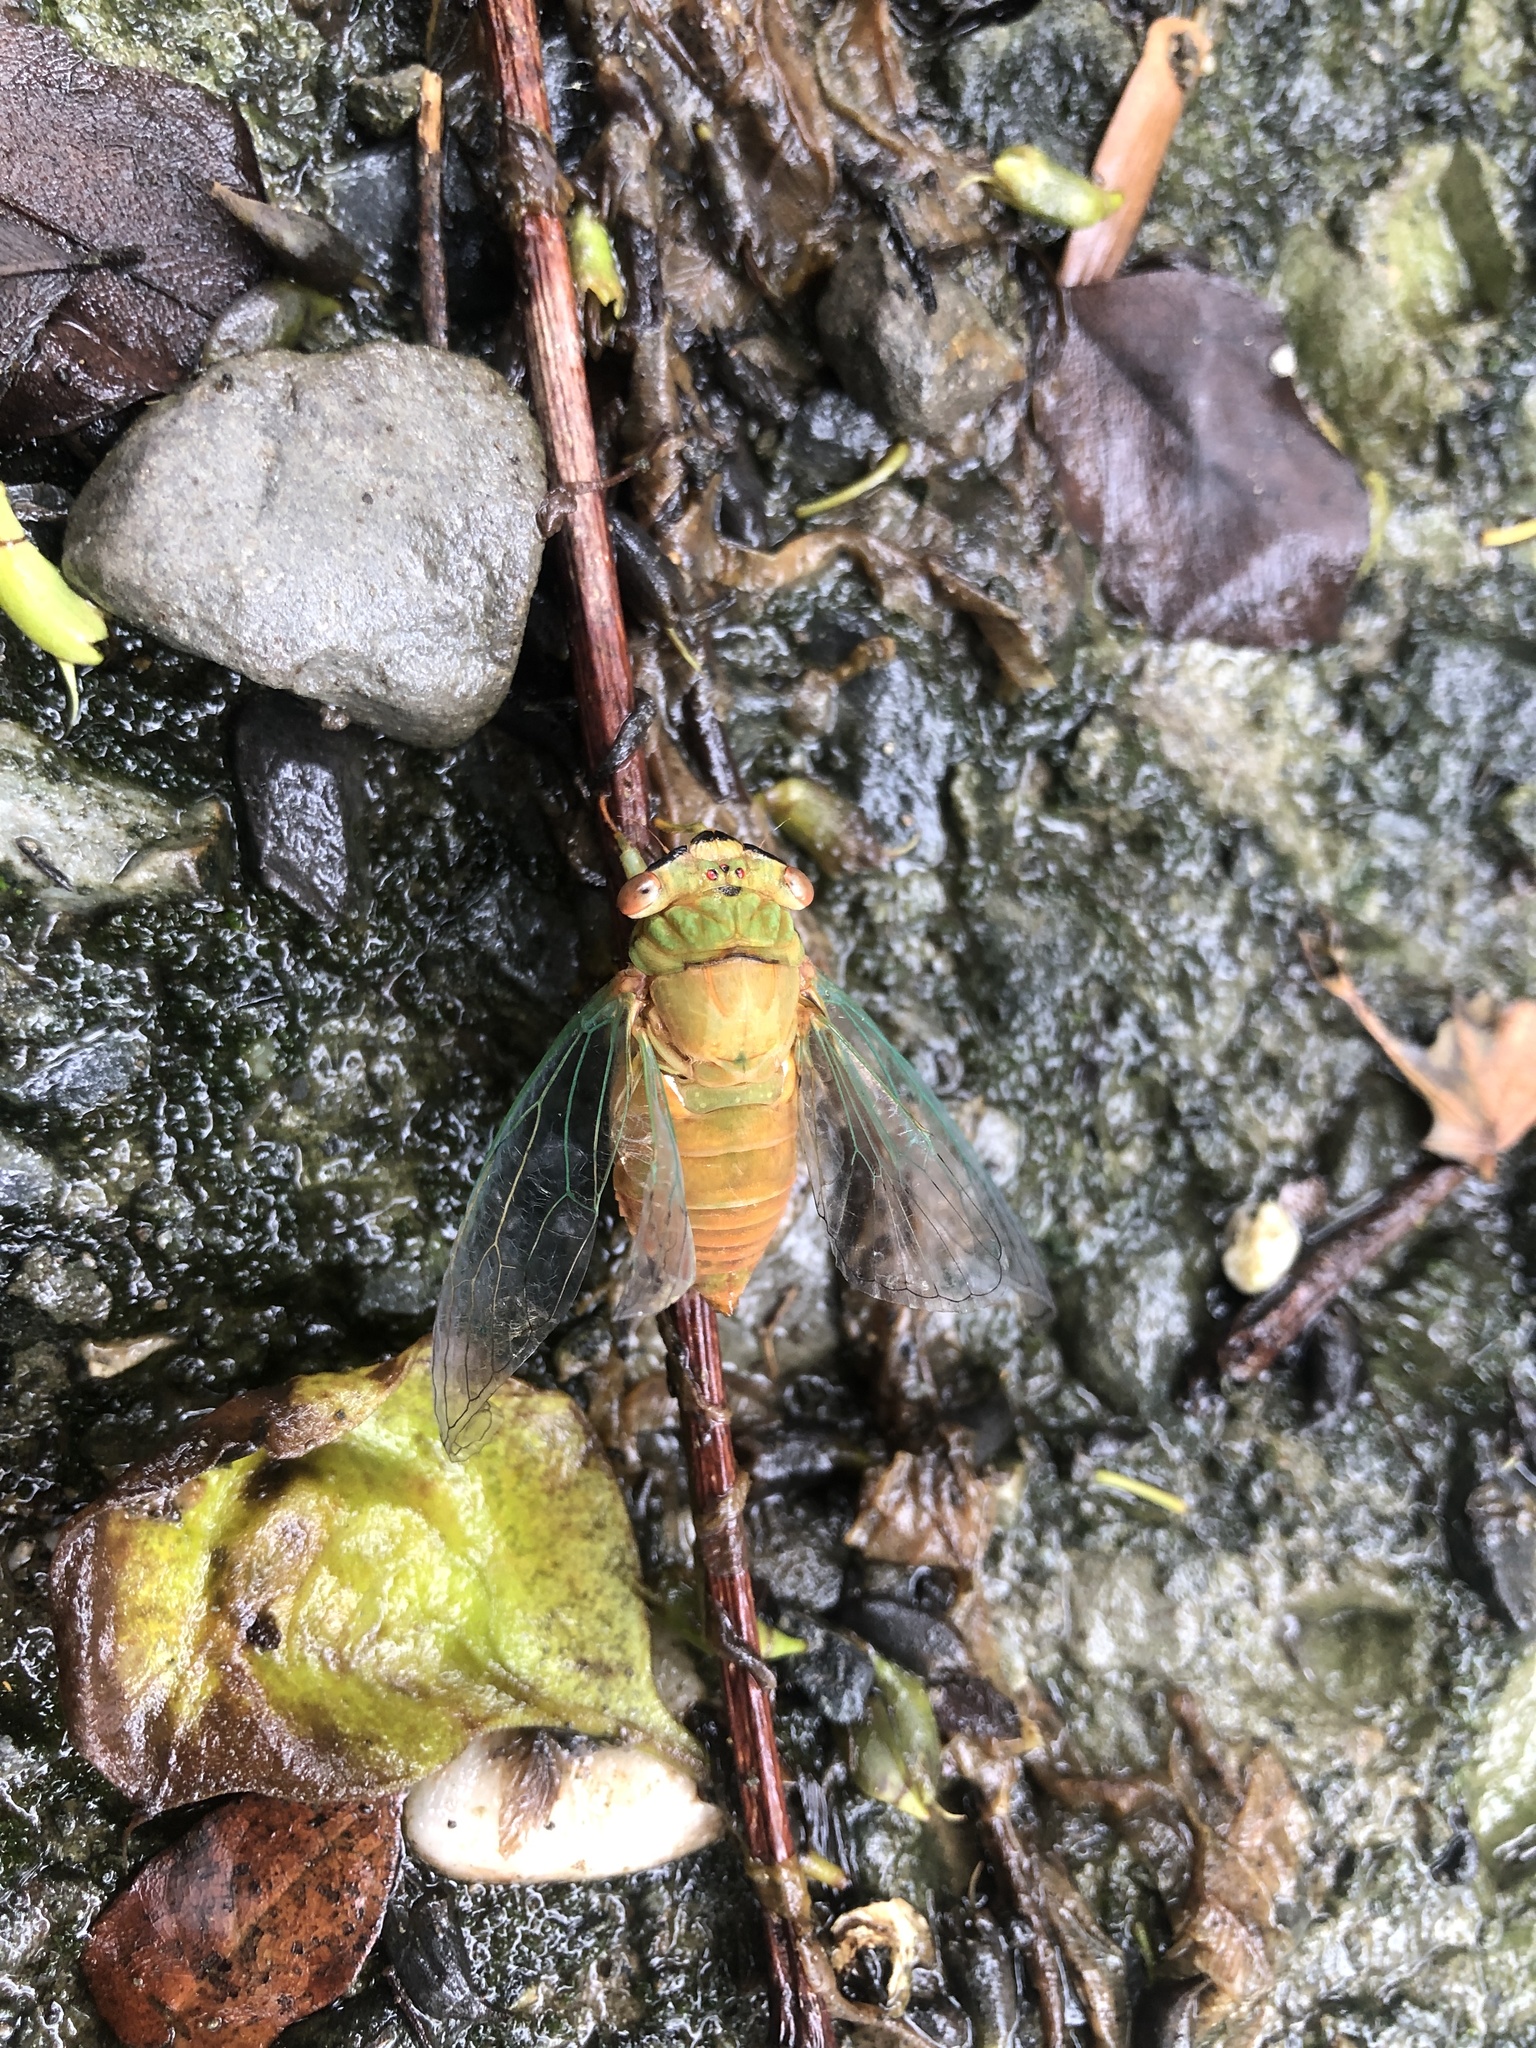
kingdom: Animalia
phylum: Arthropoda
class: Insecta
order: Hemiptera
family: Cicadidae
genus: Chremistica
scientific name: Chremistica ochracea
